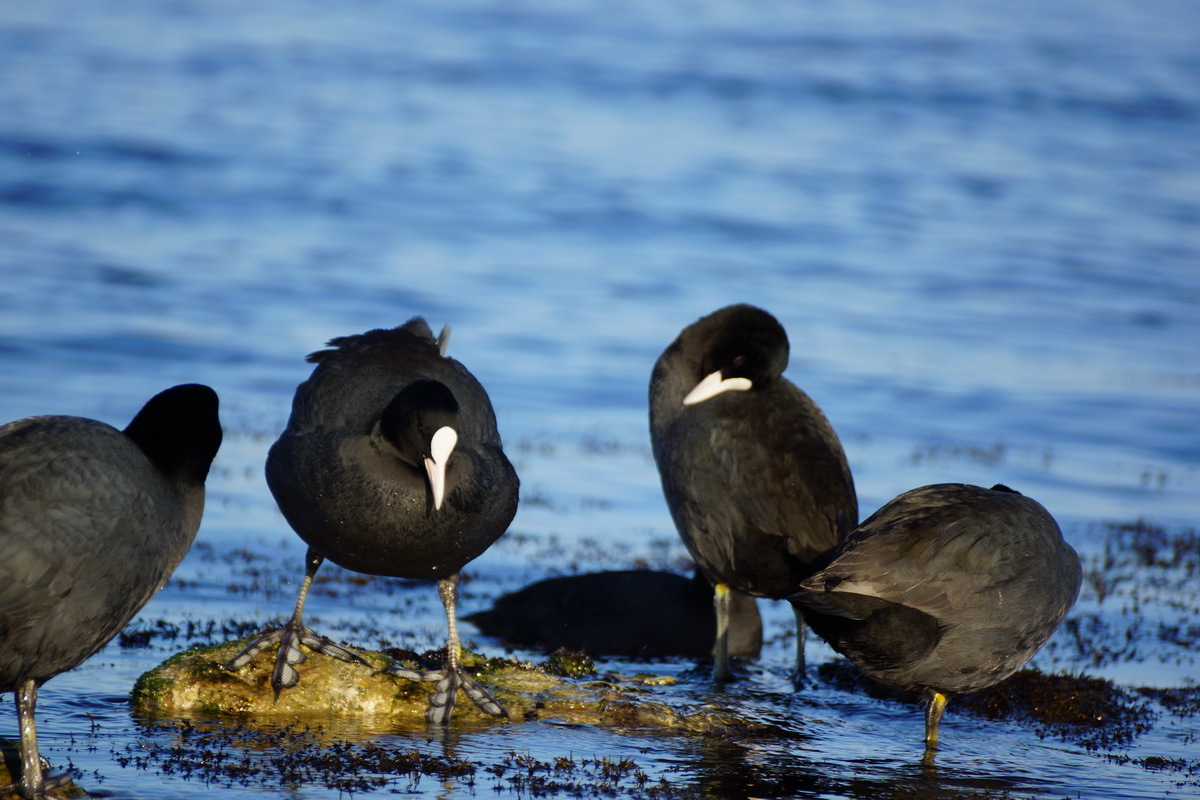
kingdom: Animalia
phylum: Chordata
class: Aves
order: Gruiformes
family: Rallidae
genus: Fulica
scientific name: Fulica atra
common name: Eurasian coot
